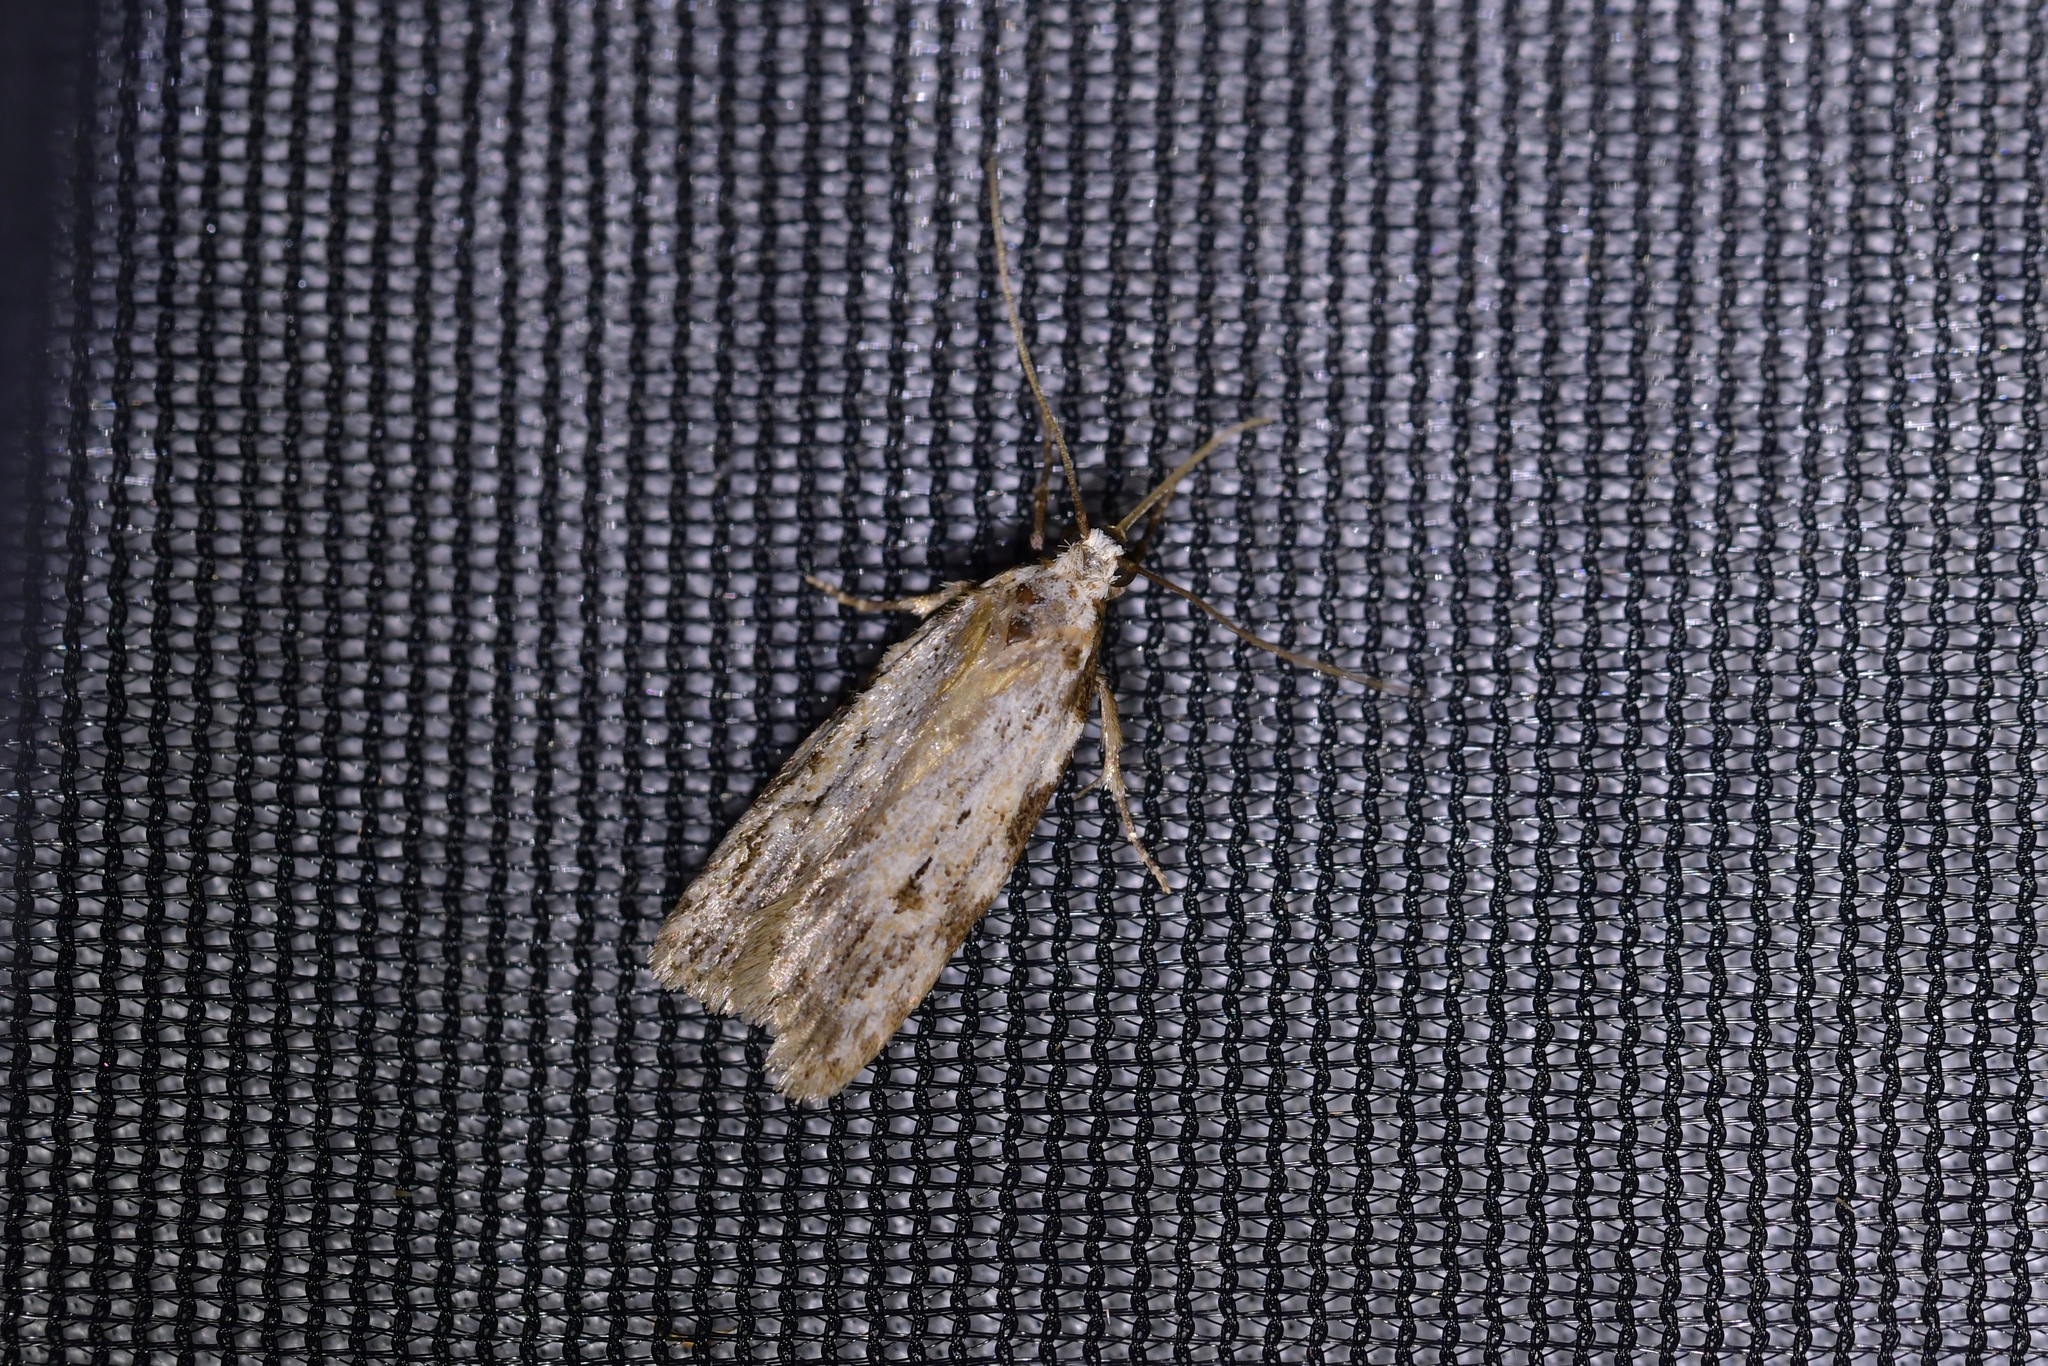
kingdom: Animalia
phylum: Arthropoda
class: Insecta
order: Lepidoptera
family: Oecophoridae
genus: Izatha
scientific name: Izatha balanophora
